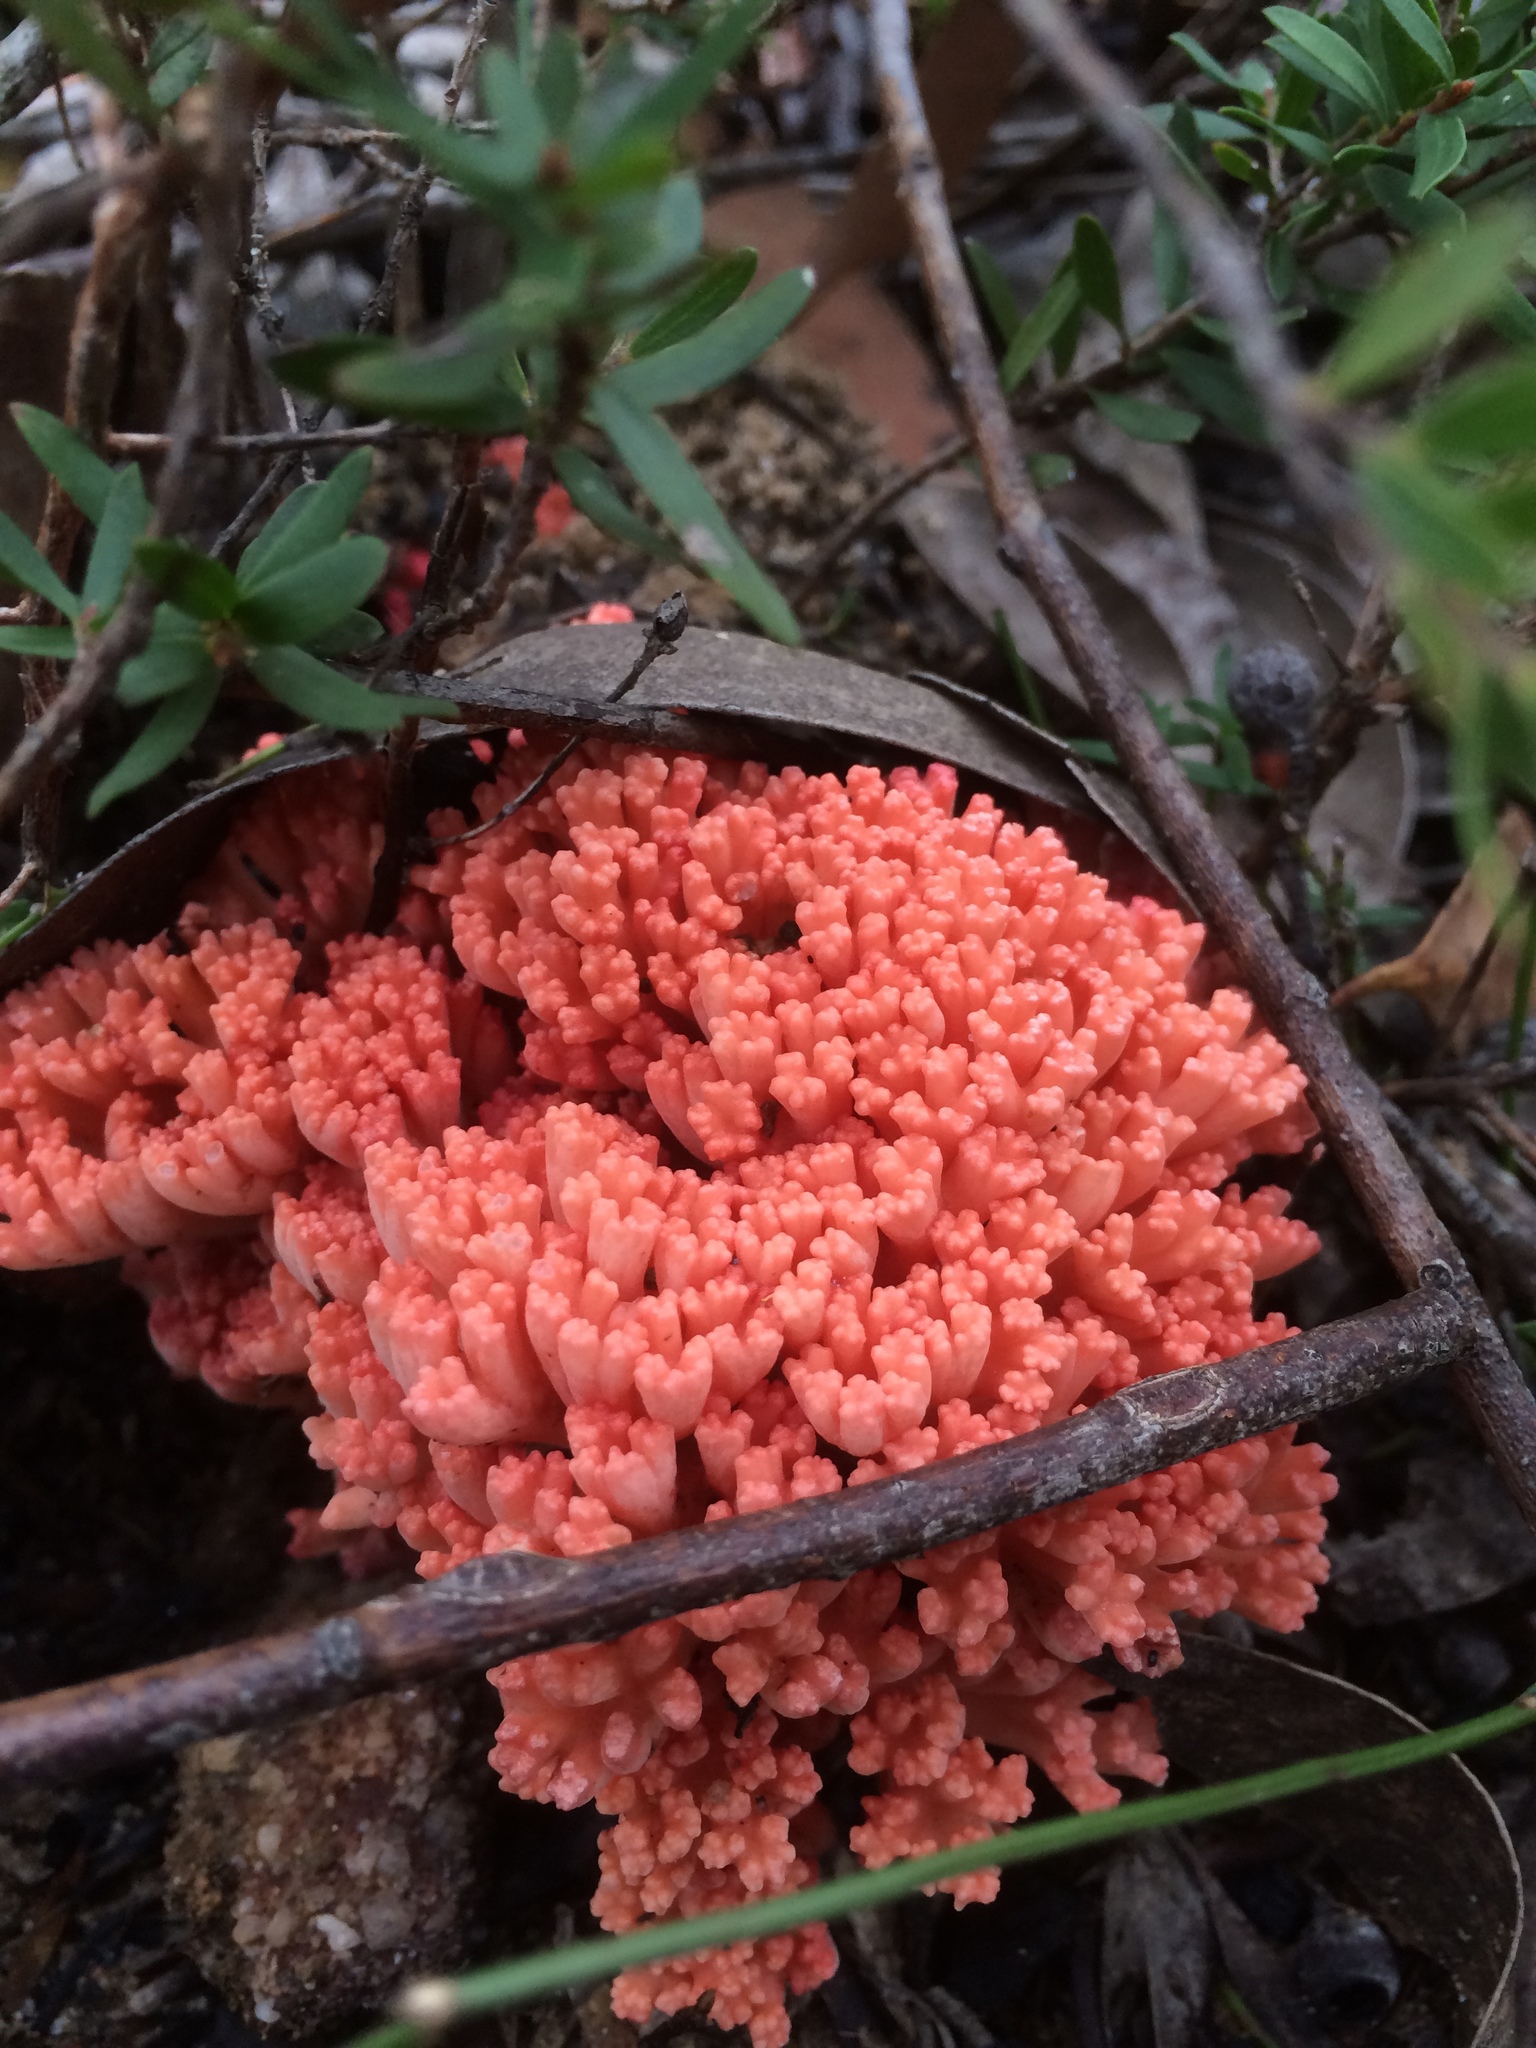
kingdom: Fungi
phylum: Basidiomycota
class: Agaricomycetes
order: Gomphales
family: Gomphaceae
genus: Ramaria
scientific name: Ramaria capitata
